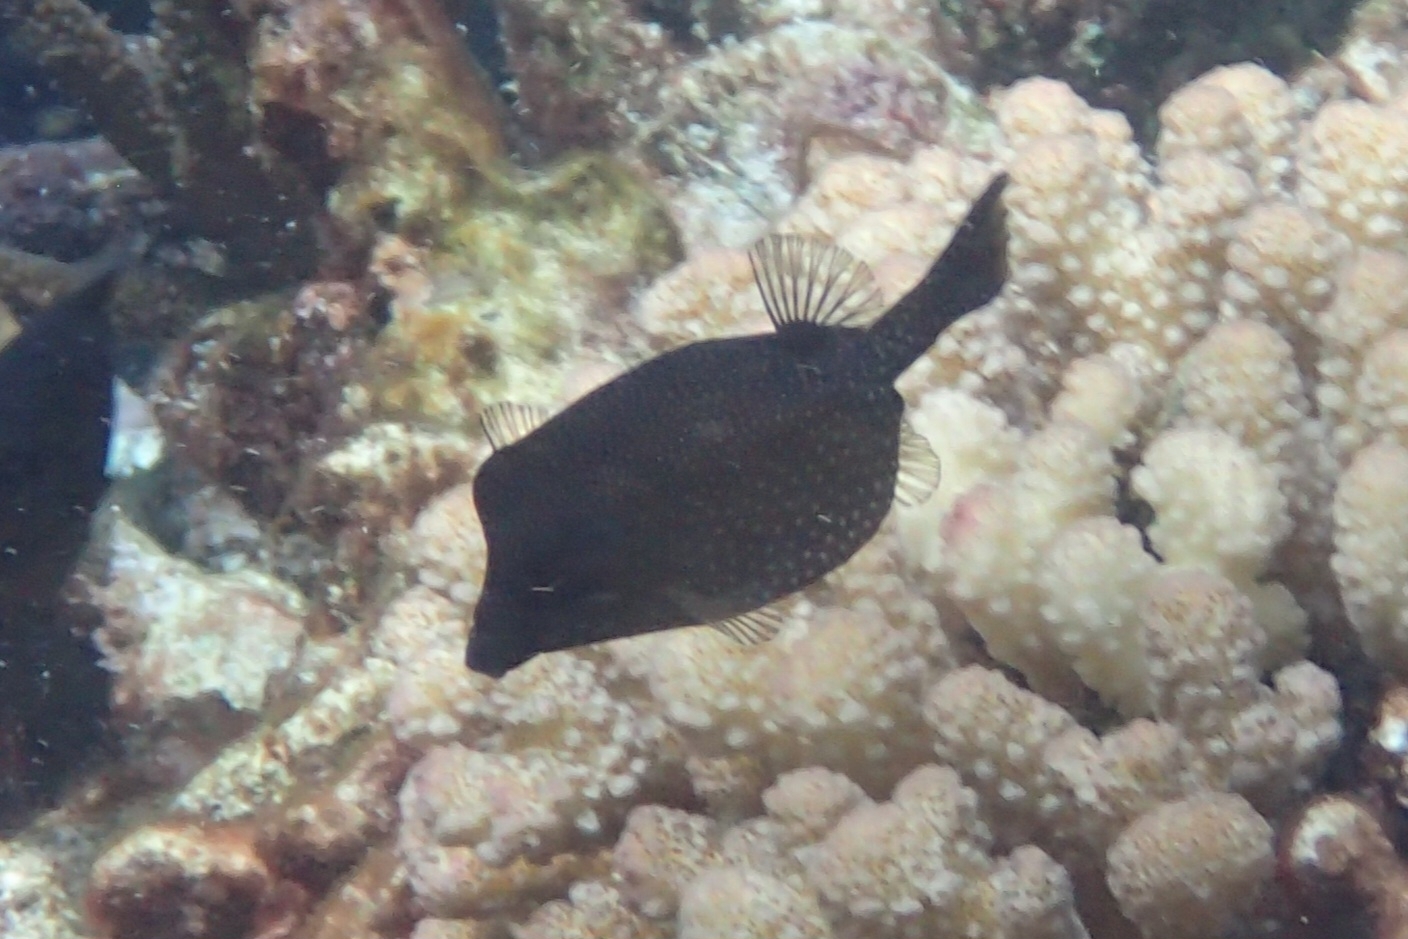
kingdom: Animalia
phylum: Chordata
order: Tetraodontiformes
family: Ostraciidae
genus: Ostracion
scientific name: Ostracion meleagris
